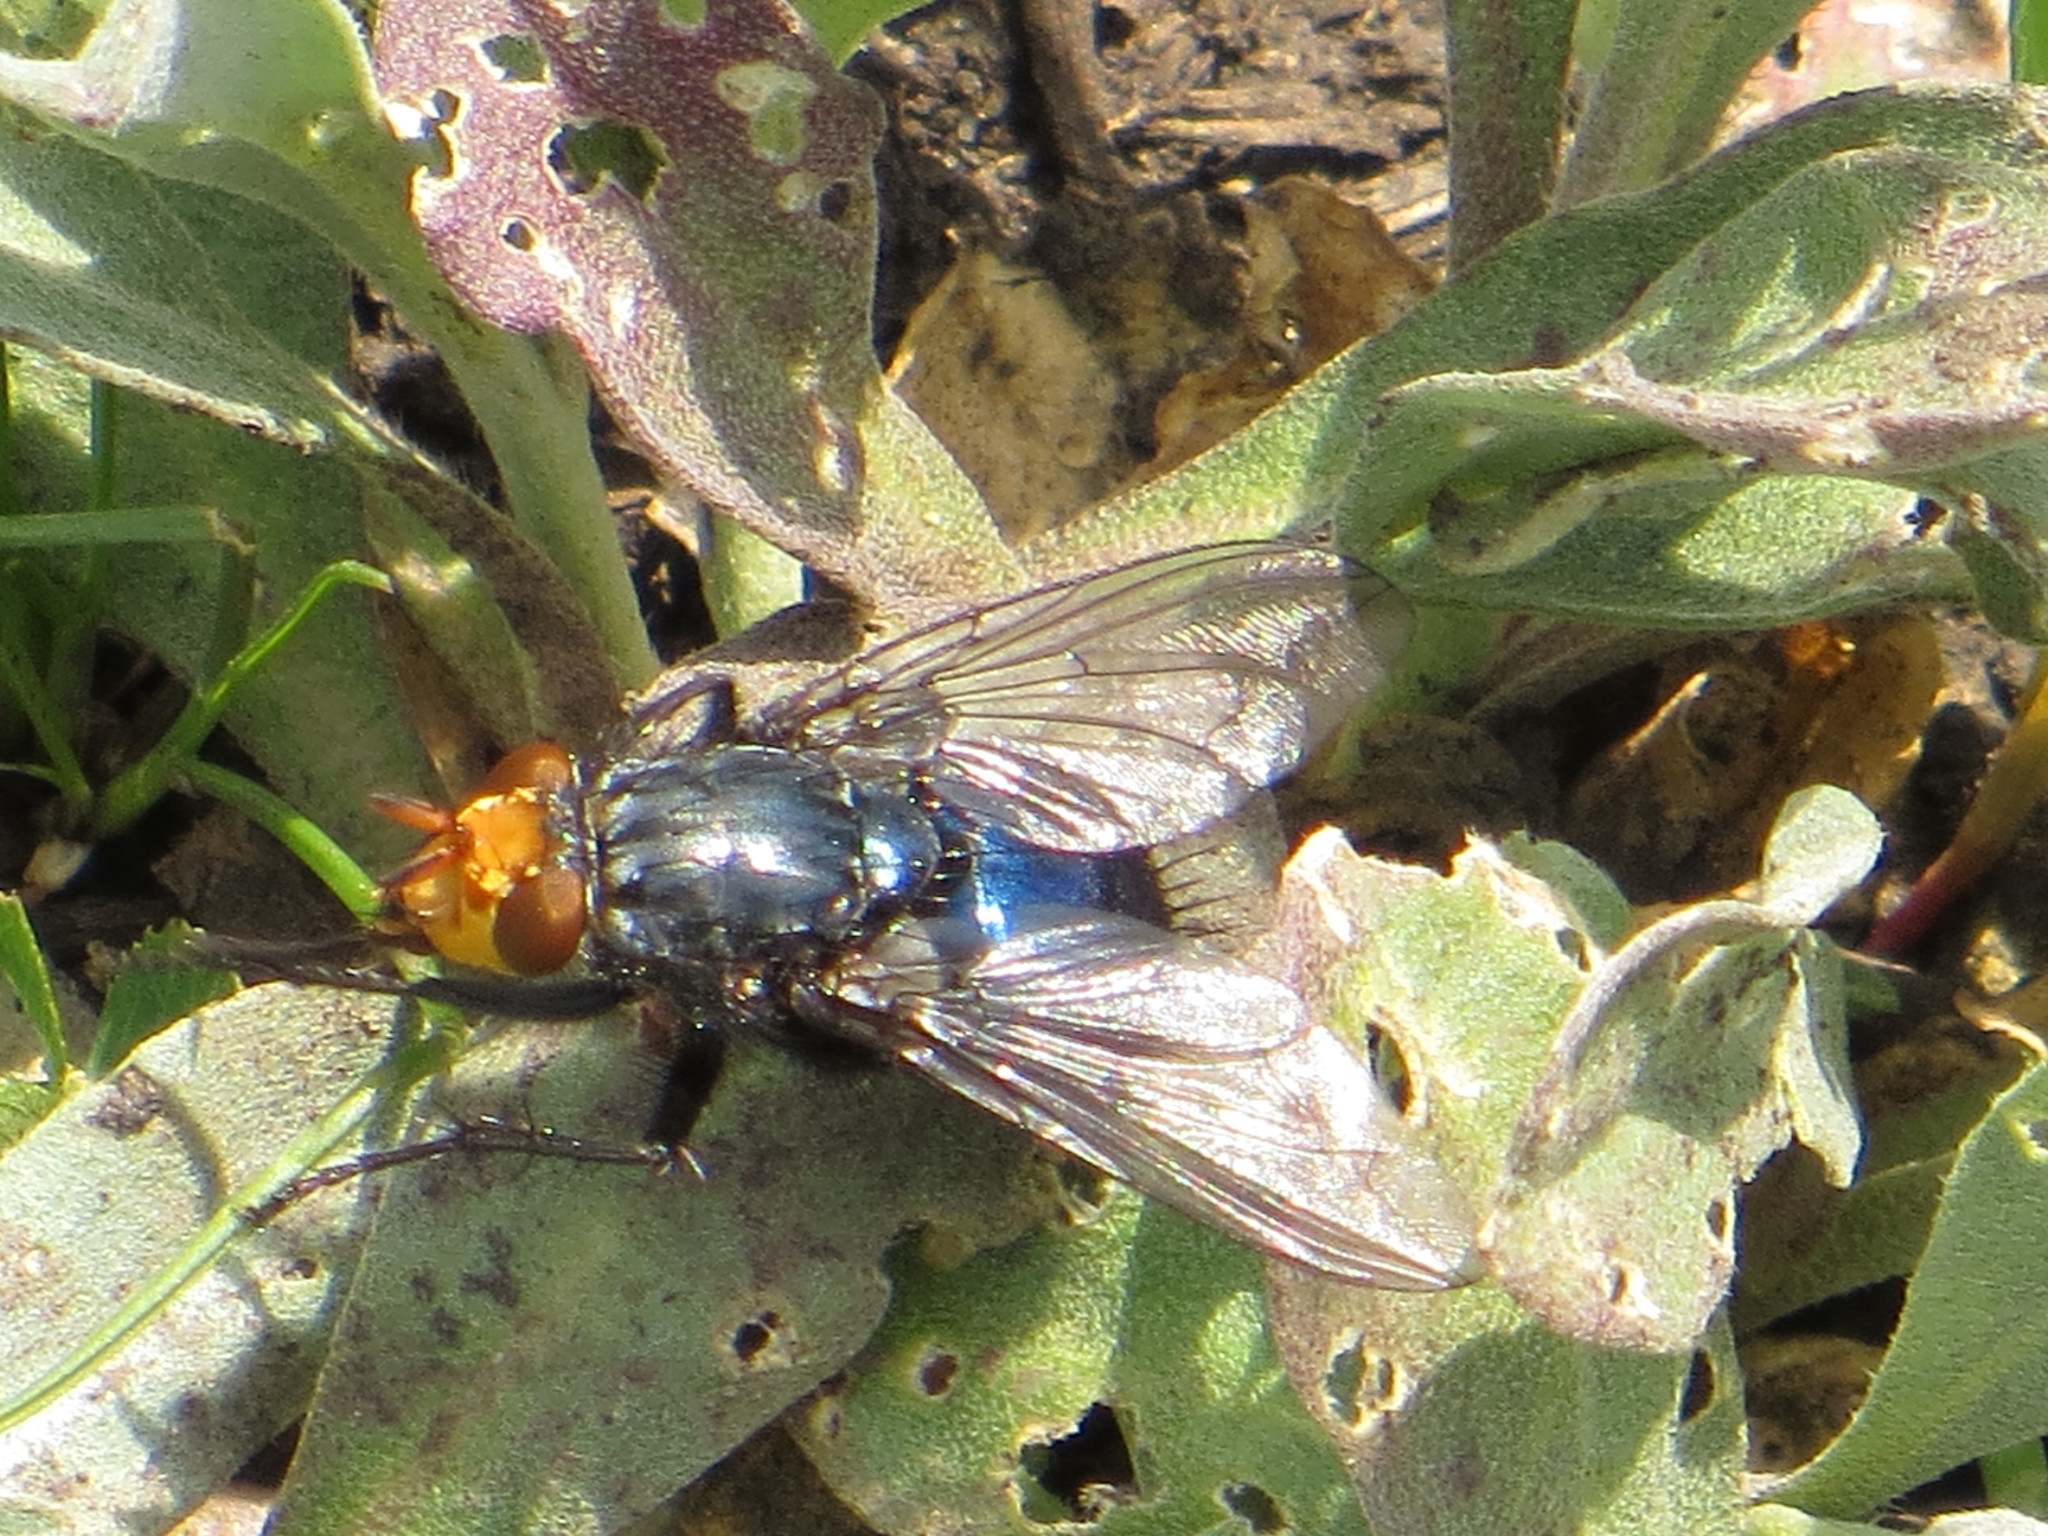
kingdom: Animalia
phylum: Arthropoda
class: Insecta
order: Diptera
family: Calliphoridae
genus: Cynomya
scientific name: Cynomya mortuorum
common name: Bluebottle blow fly
